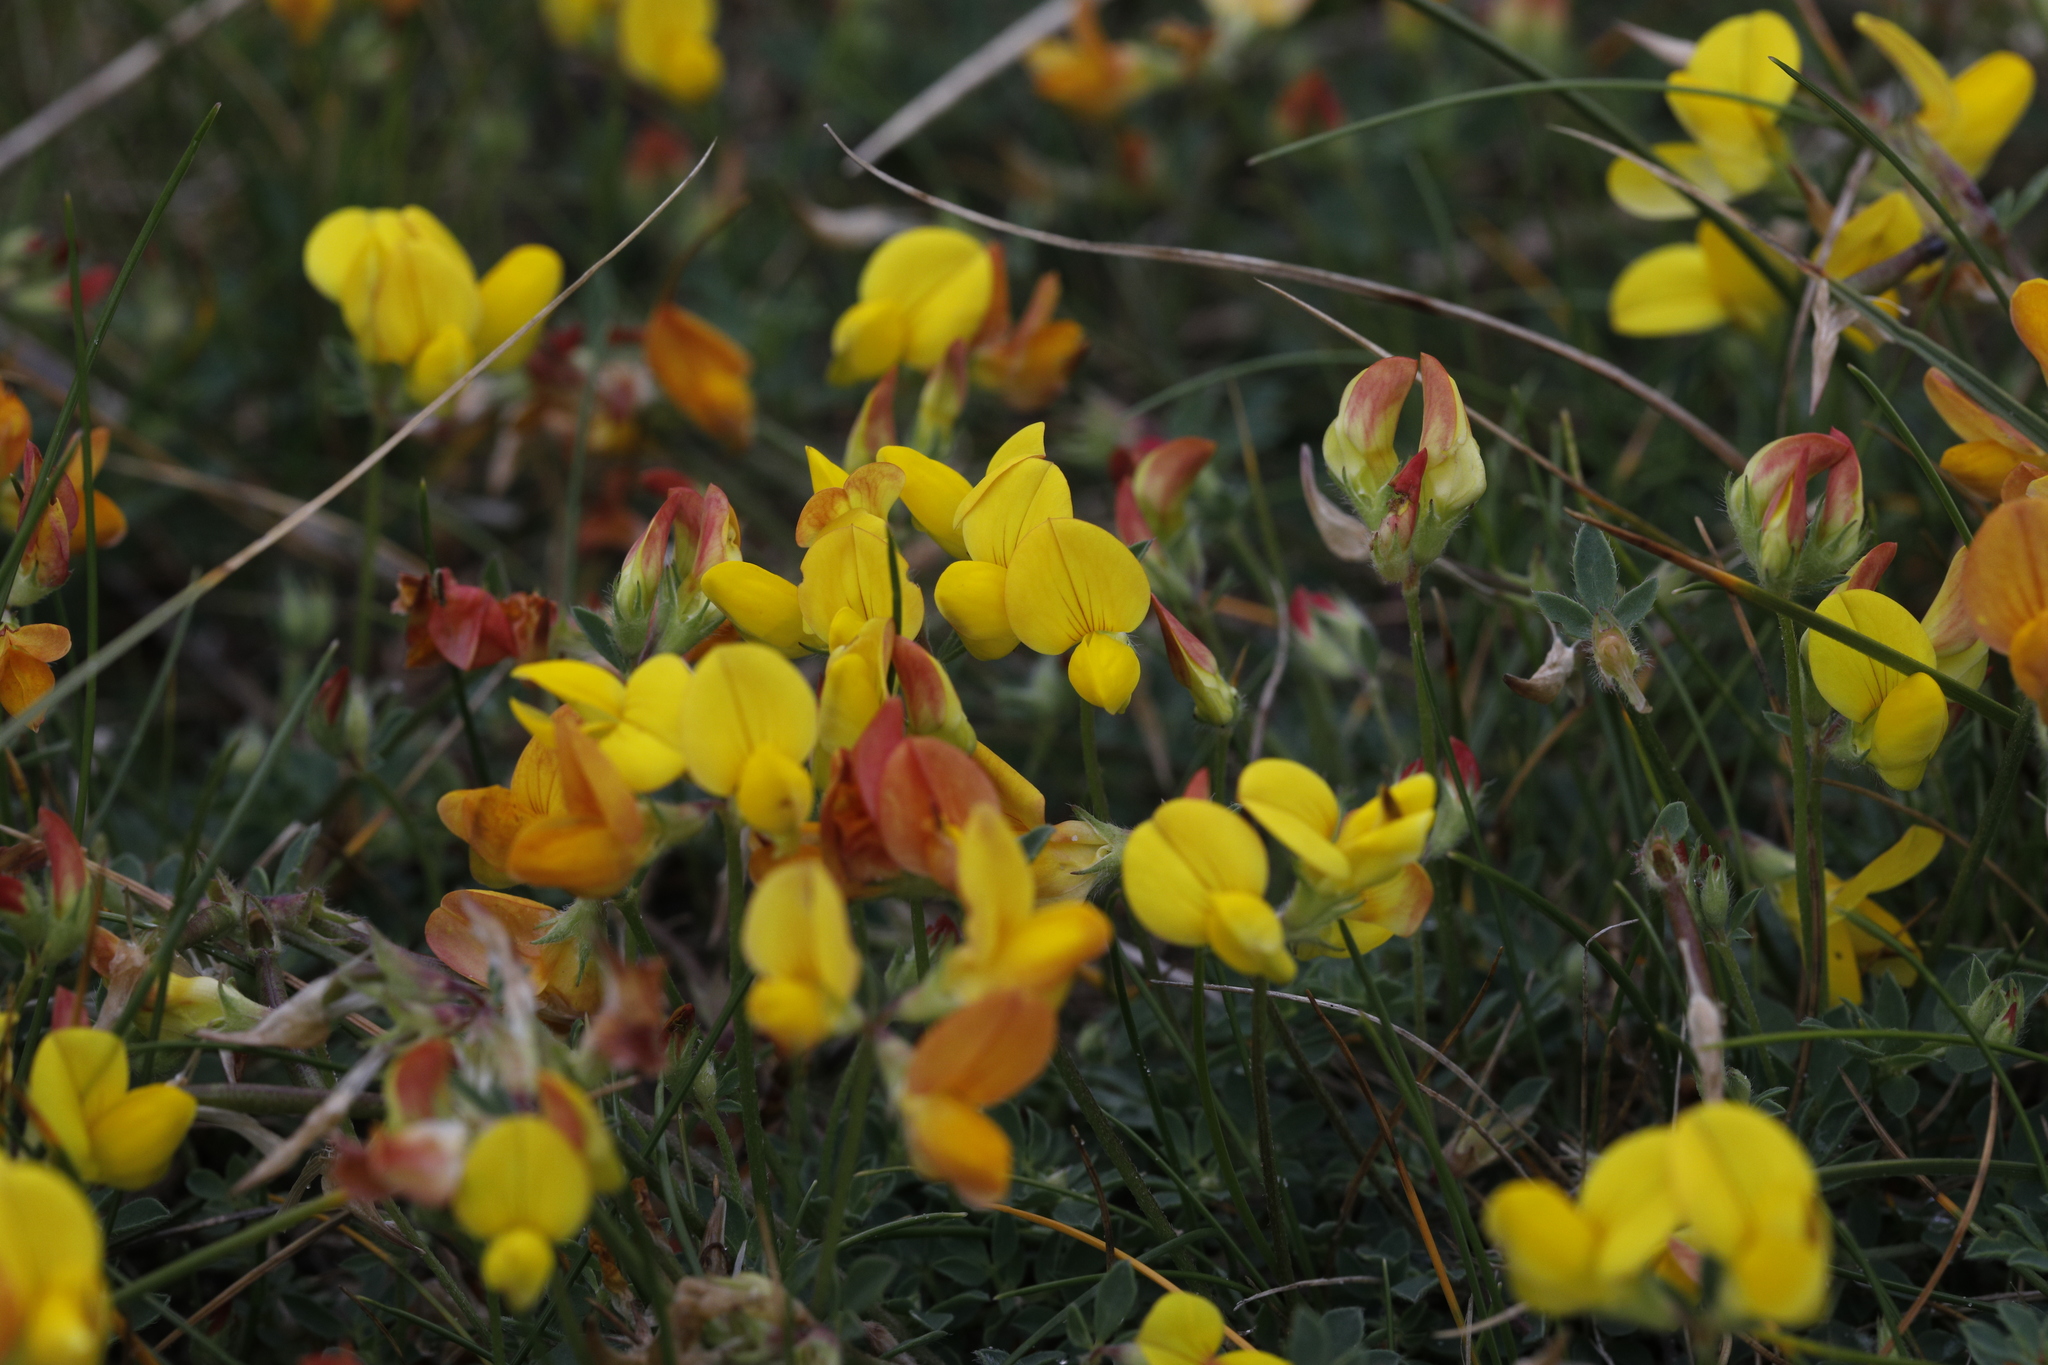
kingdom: Plantae
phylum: Tracheophyta
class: Magnoliopsida
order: Fabales
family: Fabaceae
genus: Lotus
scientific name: Lotus corniculatus
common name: Common bird's-foot-trefoil
